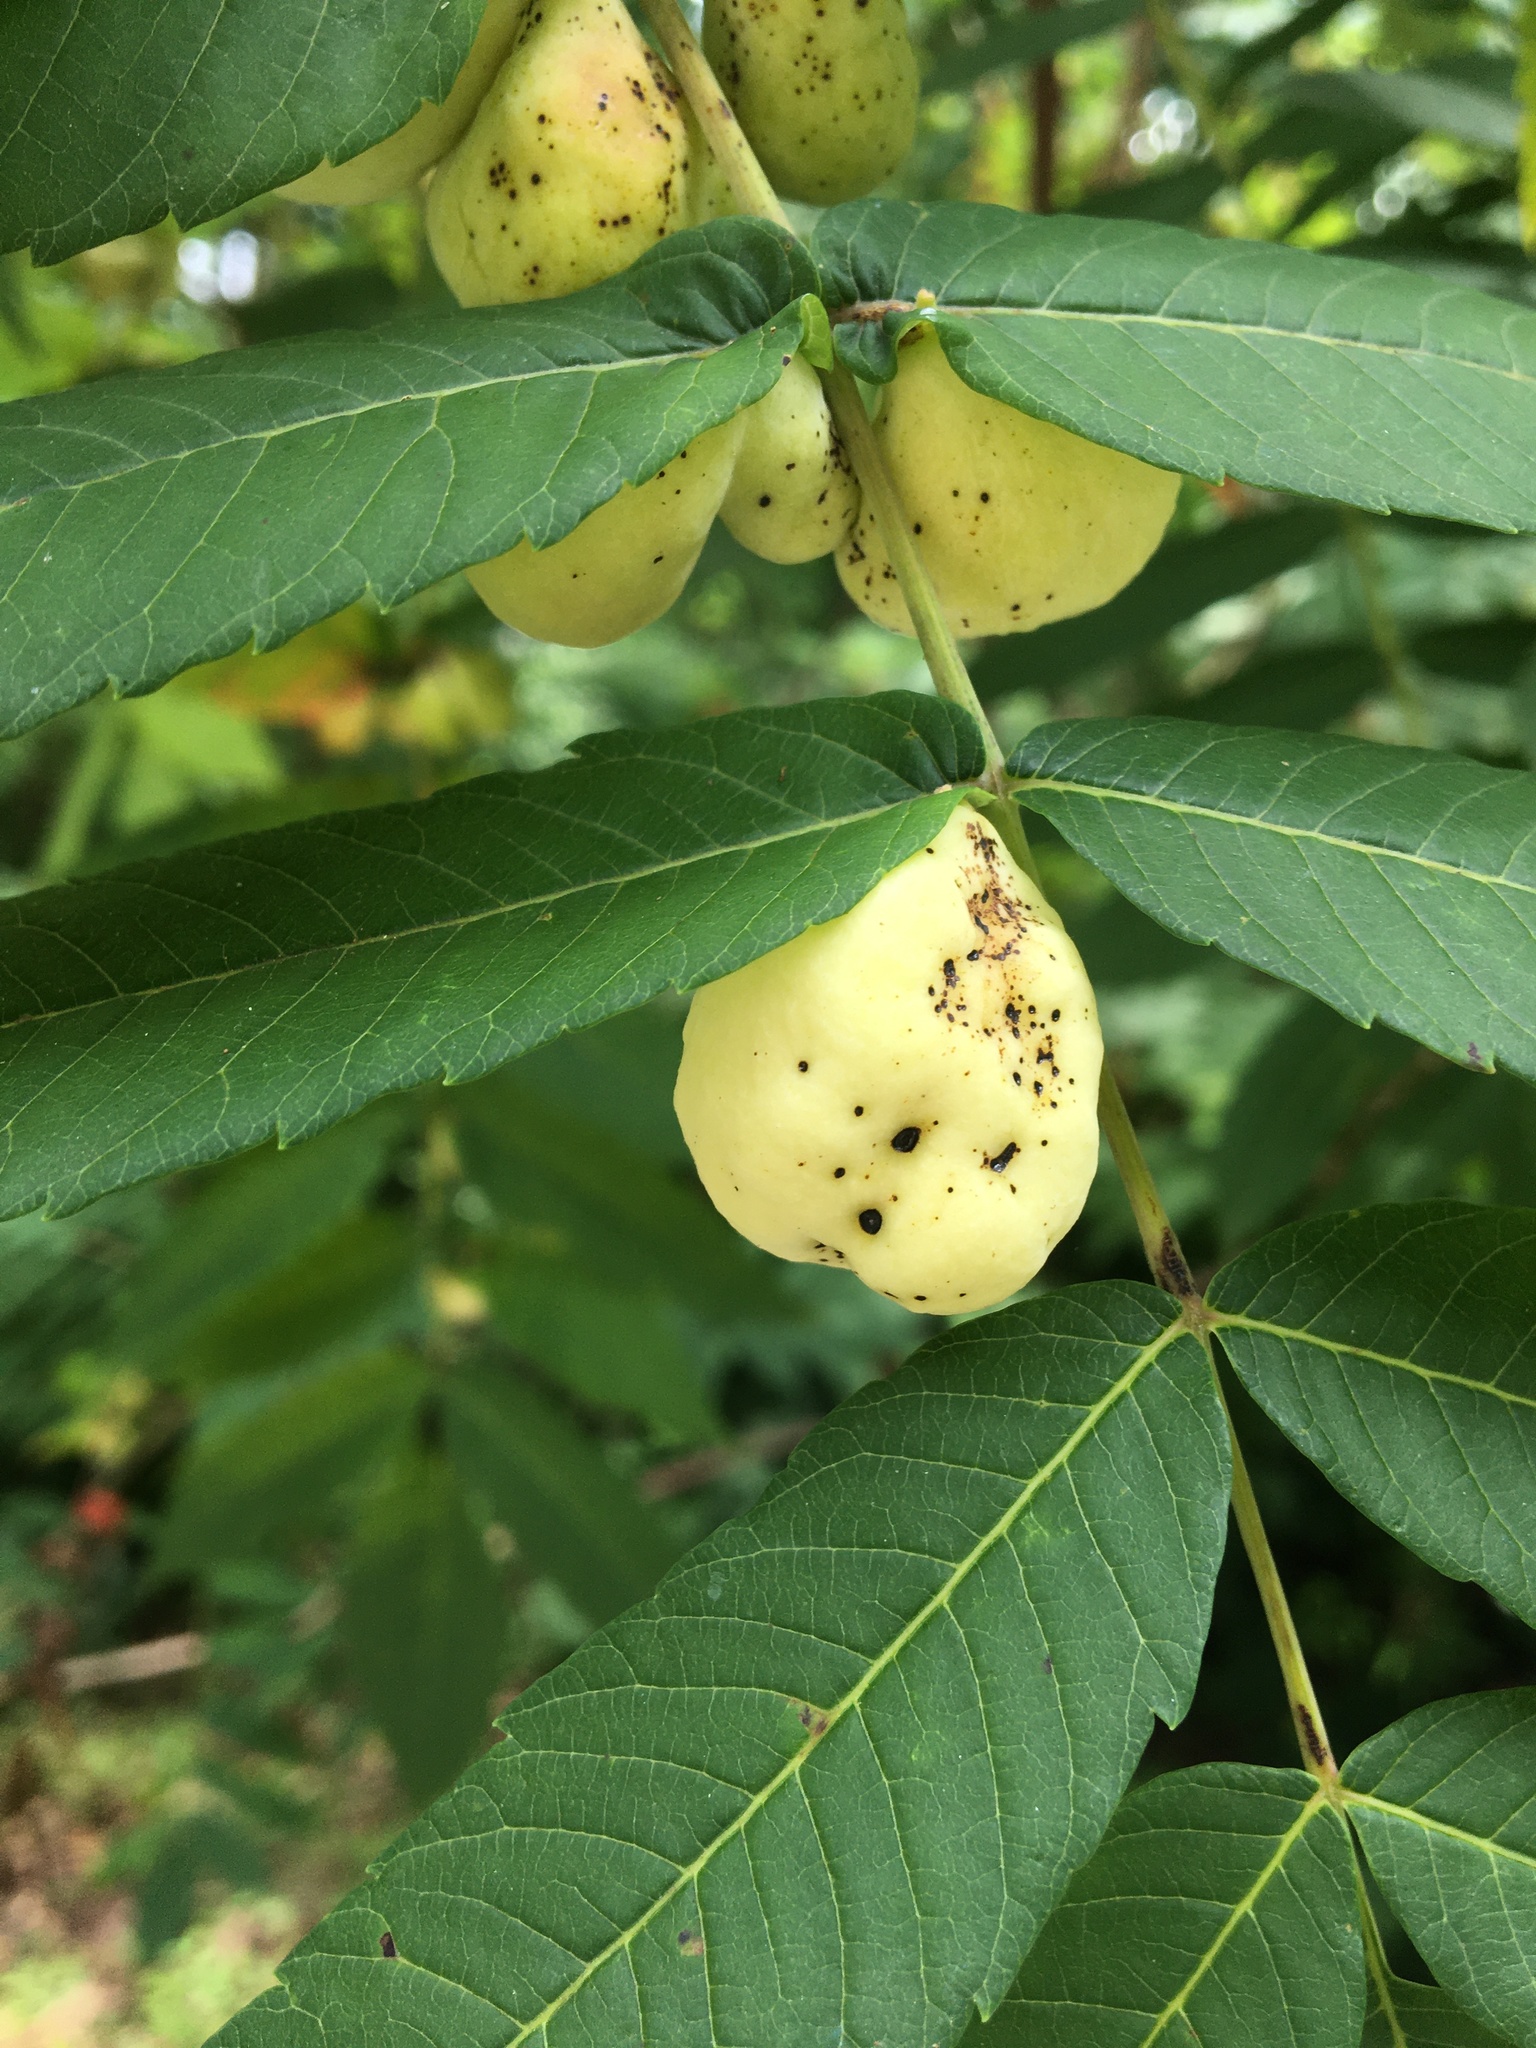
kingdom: Animalia
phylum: Arthropoda
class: Insecta
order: Hemiptera
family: Aphididae
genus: Melaphis
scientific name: Melaphis rhois
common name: Sumac gall aphid
